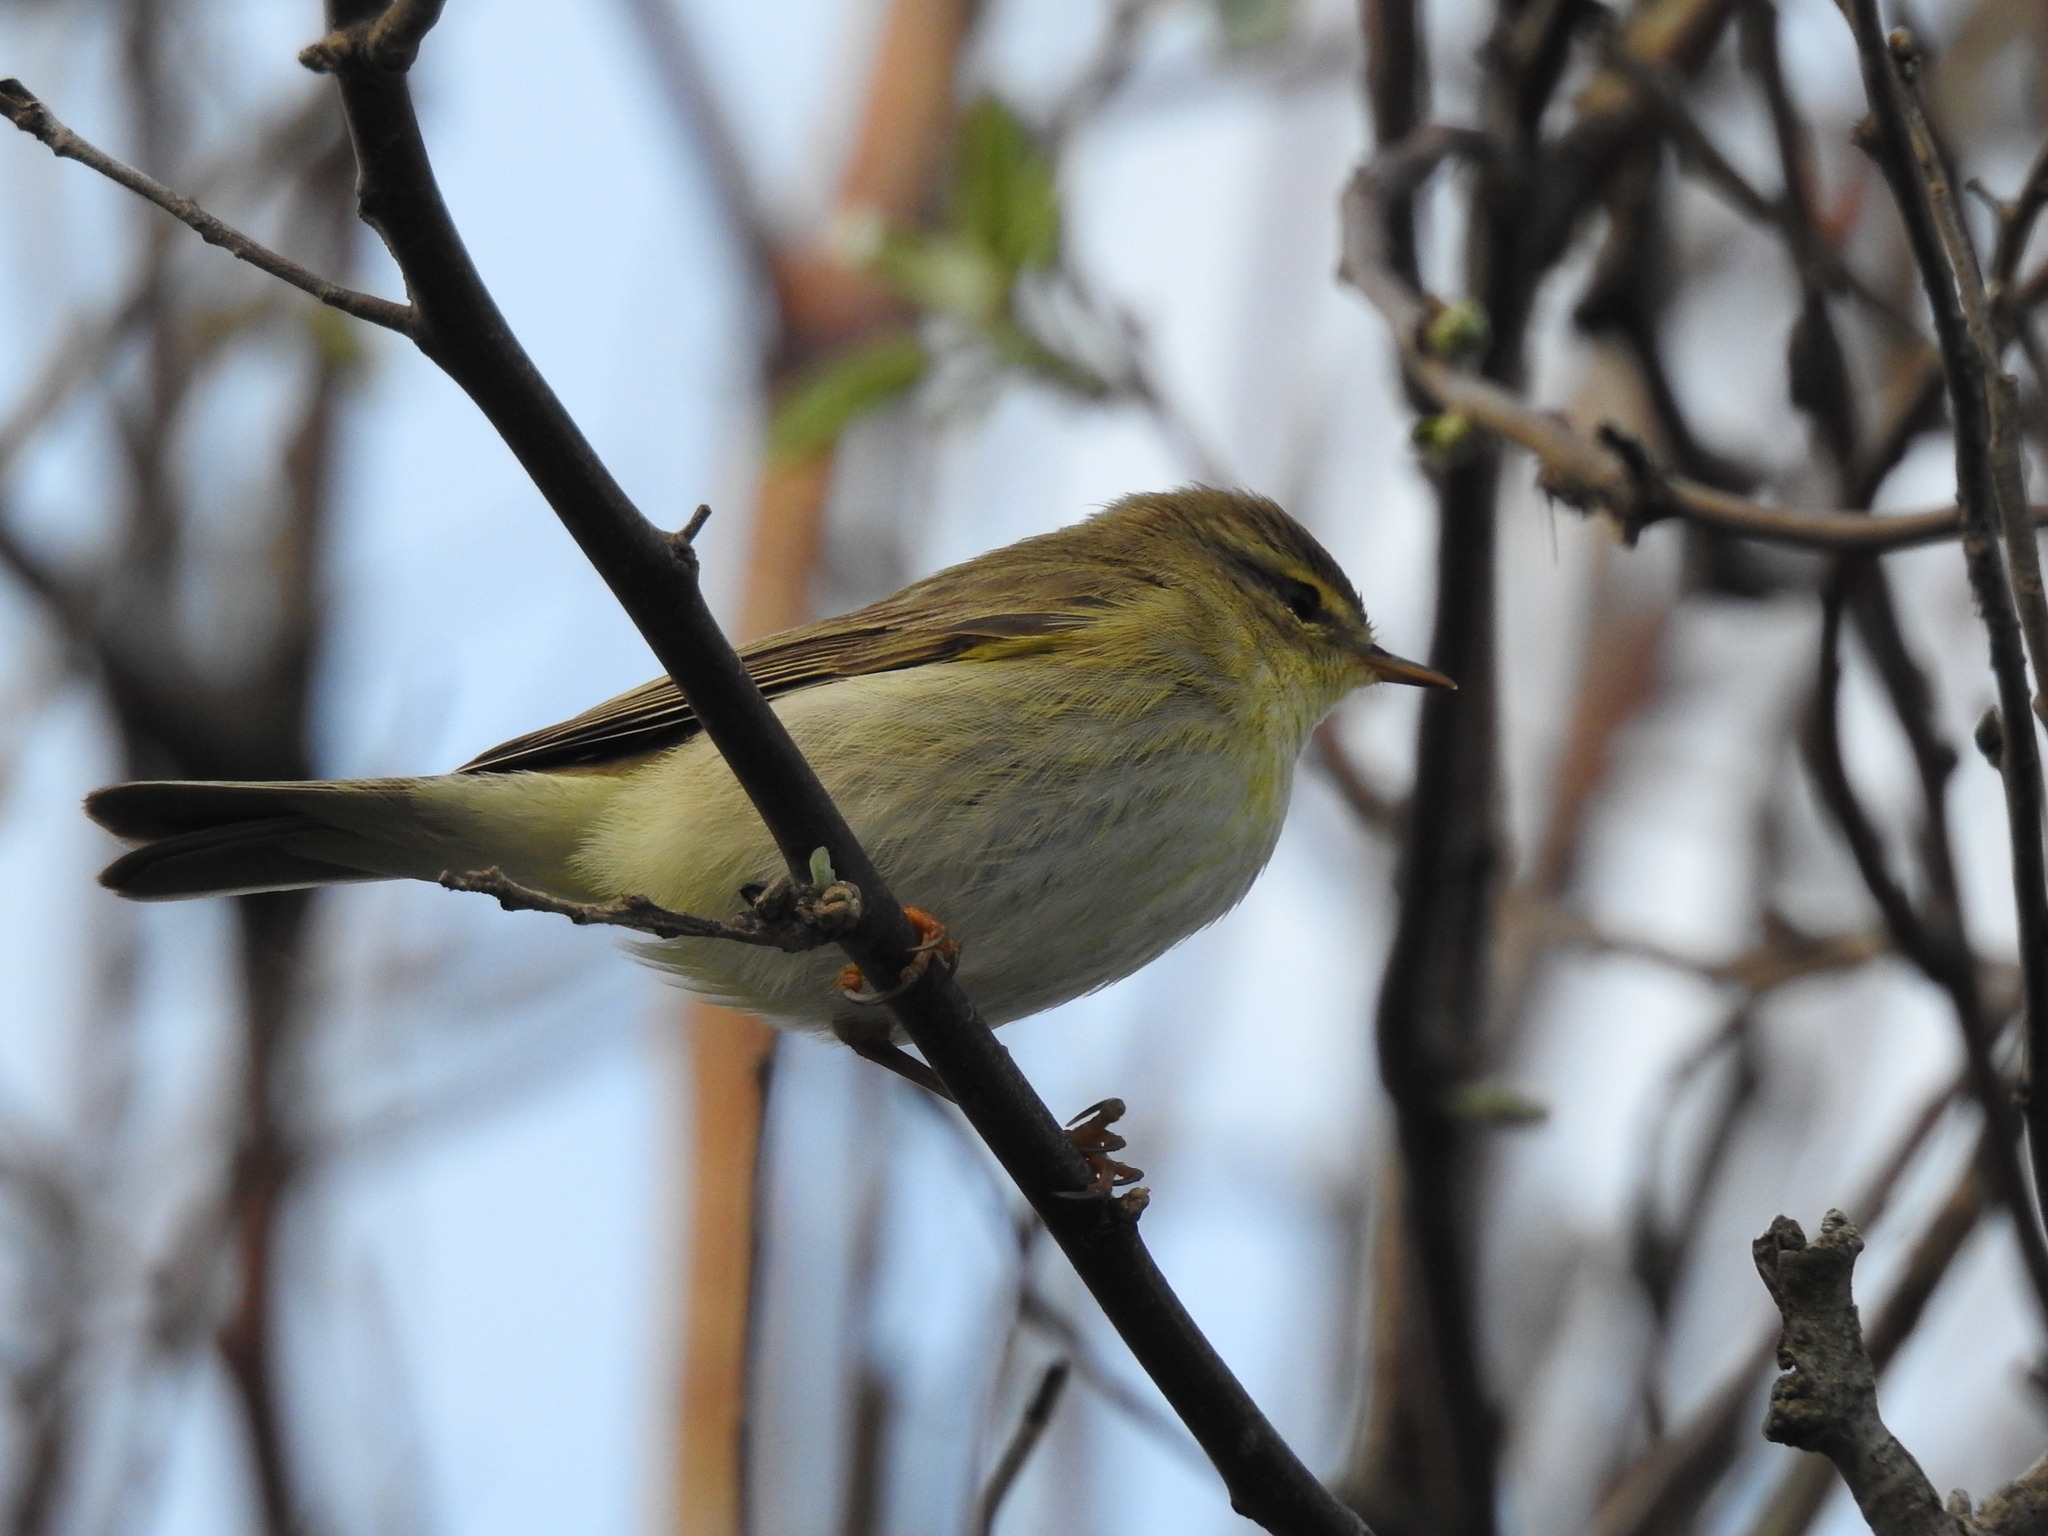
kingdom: Animalia
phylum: Chordata
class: Aves
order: Passeriformes
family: Phylloscopidae
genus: Phylloscopus
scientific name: Phylloscopus trochilus
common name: Willow warbler
